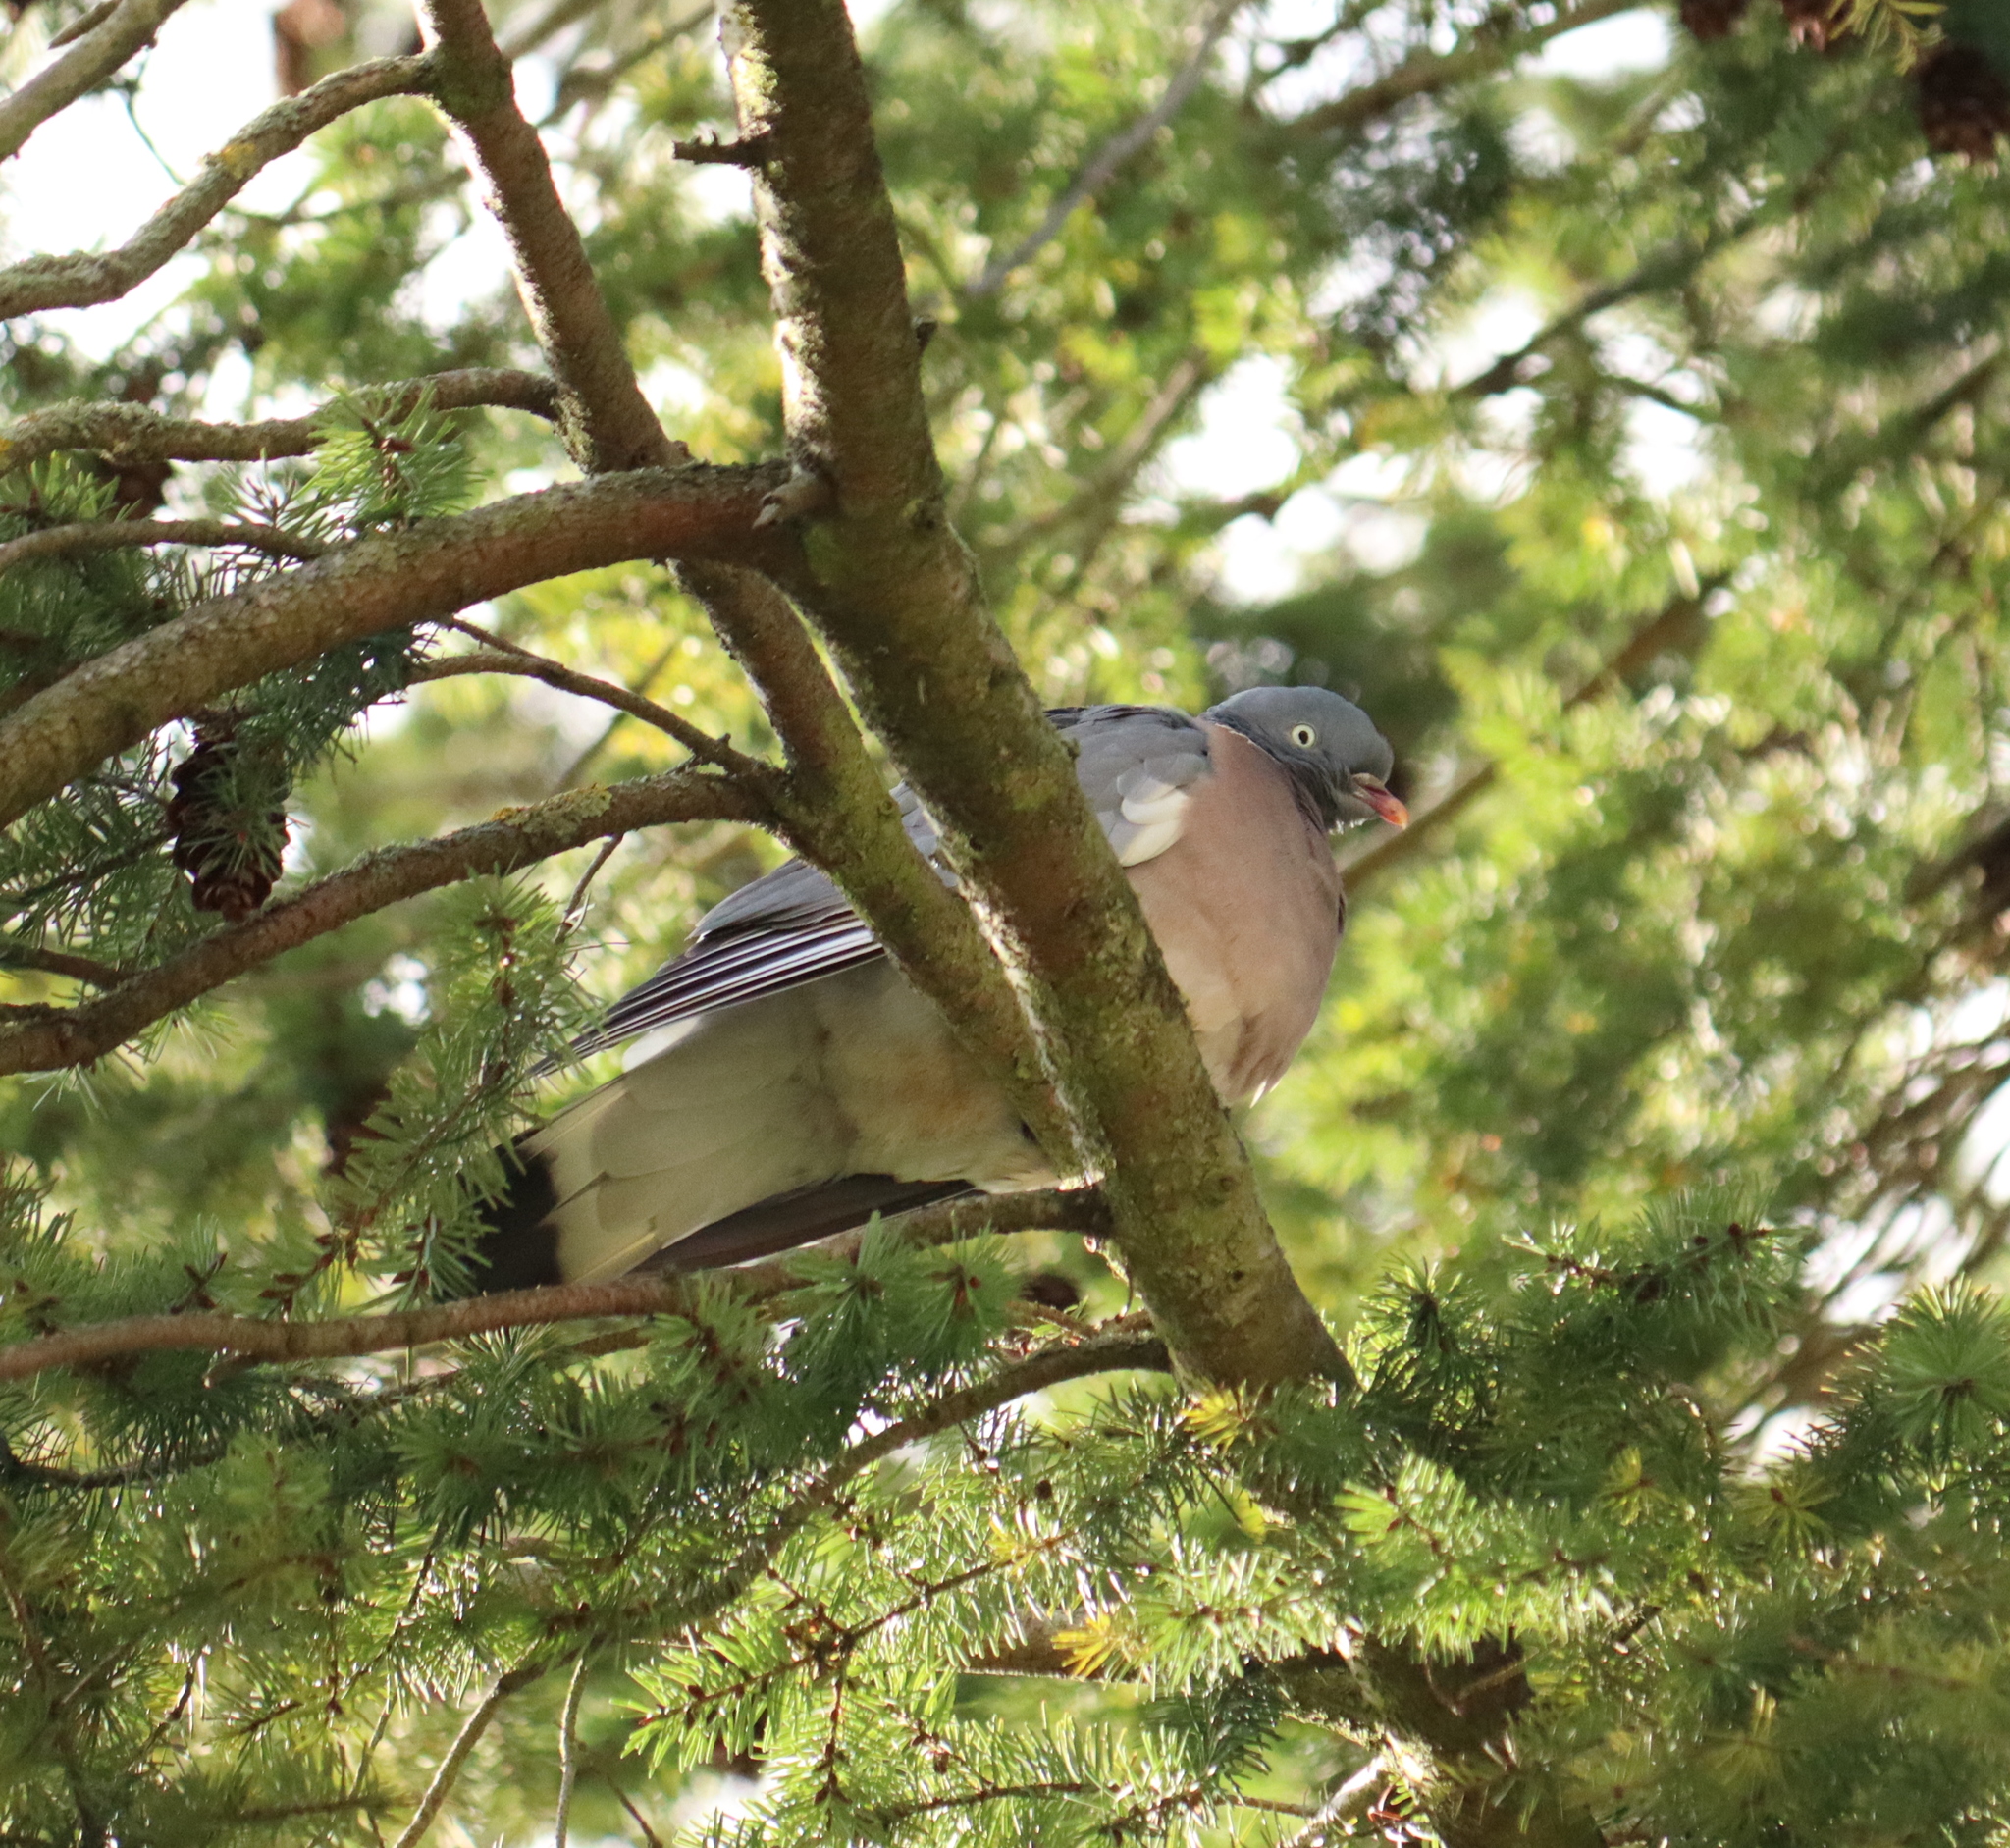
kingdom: Animalia
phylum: Chordata
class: Aves
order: Columbiformes
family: Columbidae
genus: Columba
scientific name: Columba palumbus
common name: Common wood pigeon
